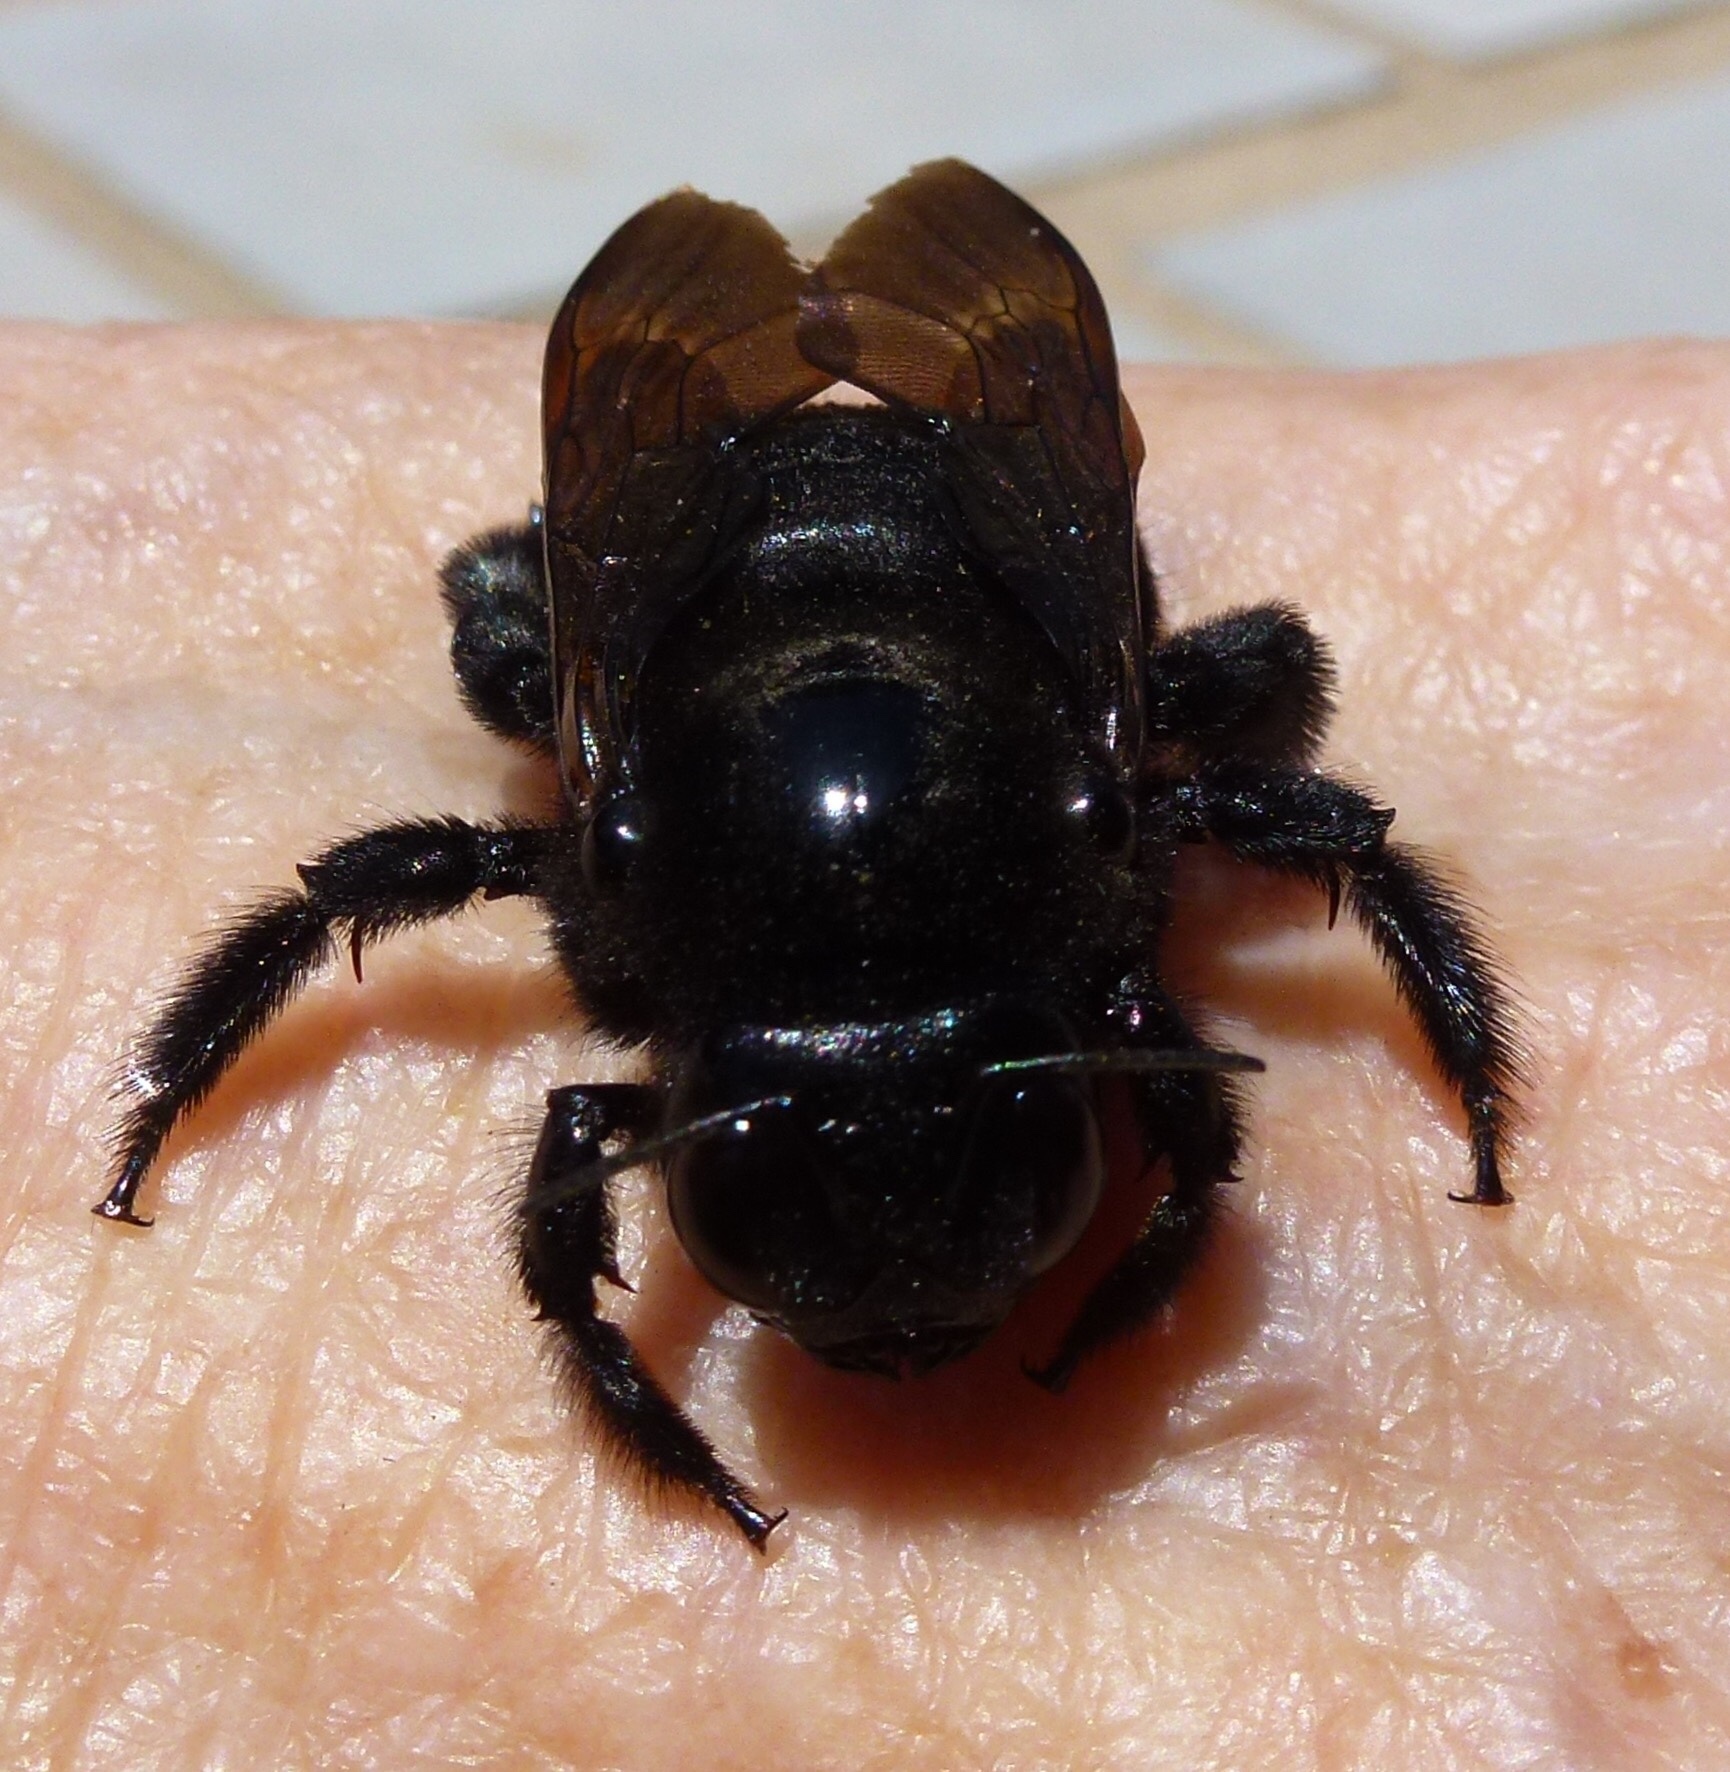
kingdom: Animalia
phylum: Arthropoda
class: Insecta
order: Hymenoptera
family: Apidae
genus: Xylocopa
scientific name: Xylocopa sonorina
